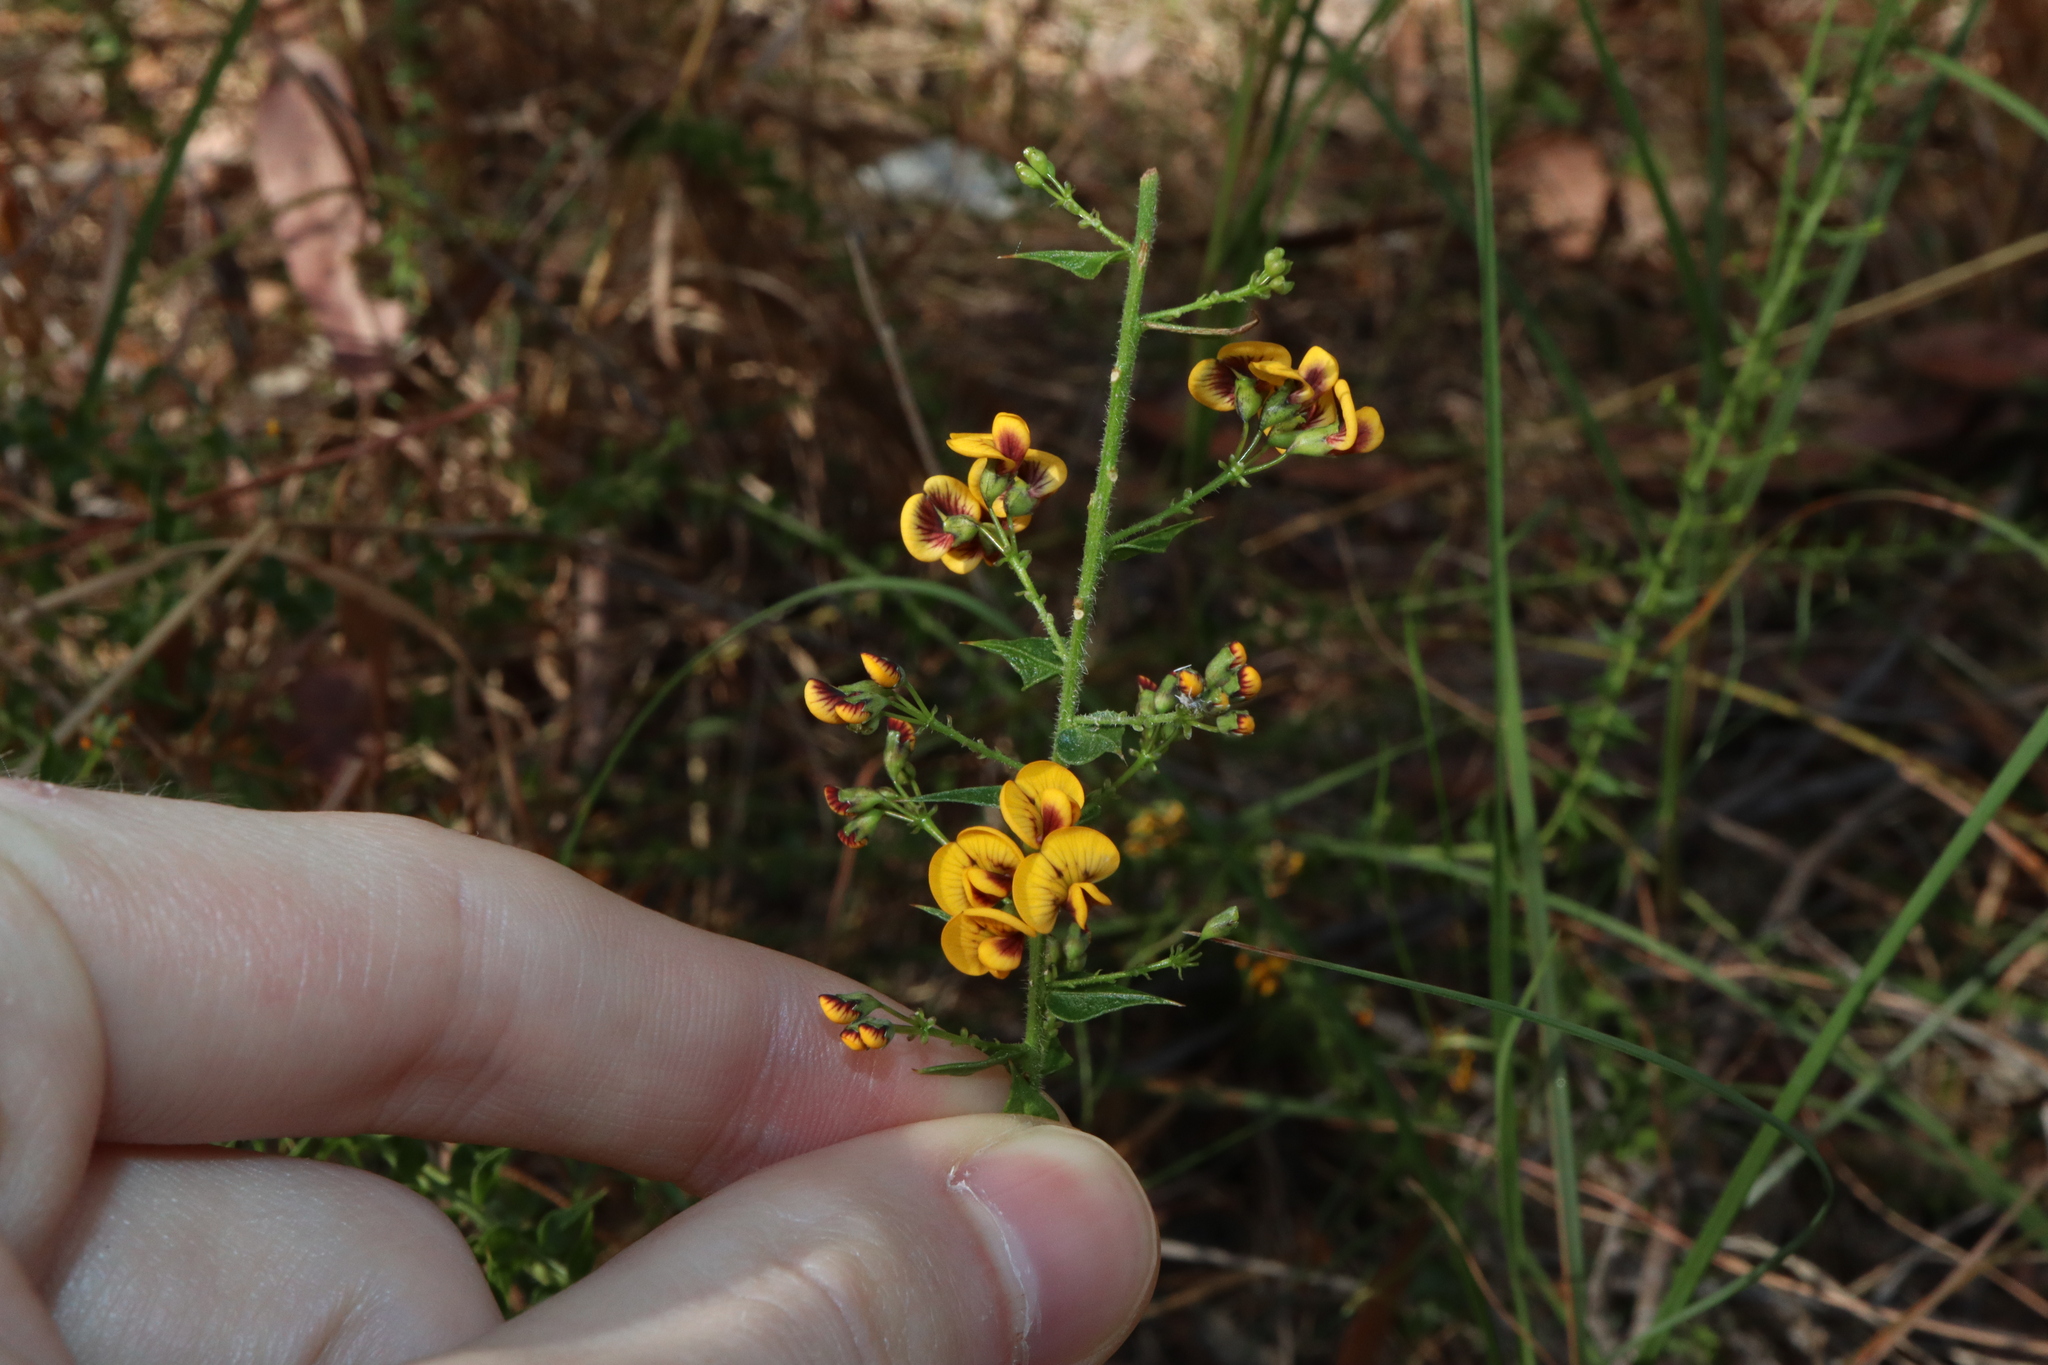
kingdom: Plantae
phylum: Tracheophyta
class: Magnoliopsida
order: Fabales
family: Fabaceae
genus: Daviesia
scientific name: Daviesia umbellulata
